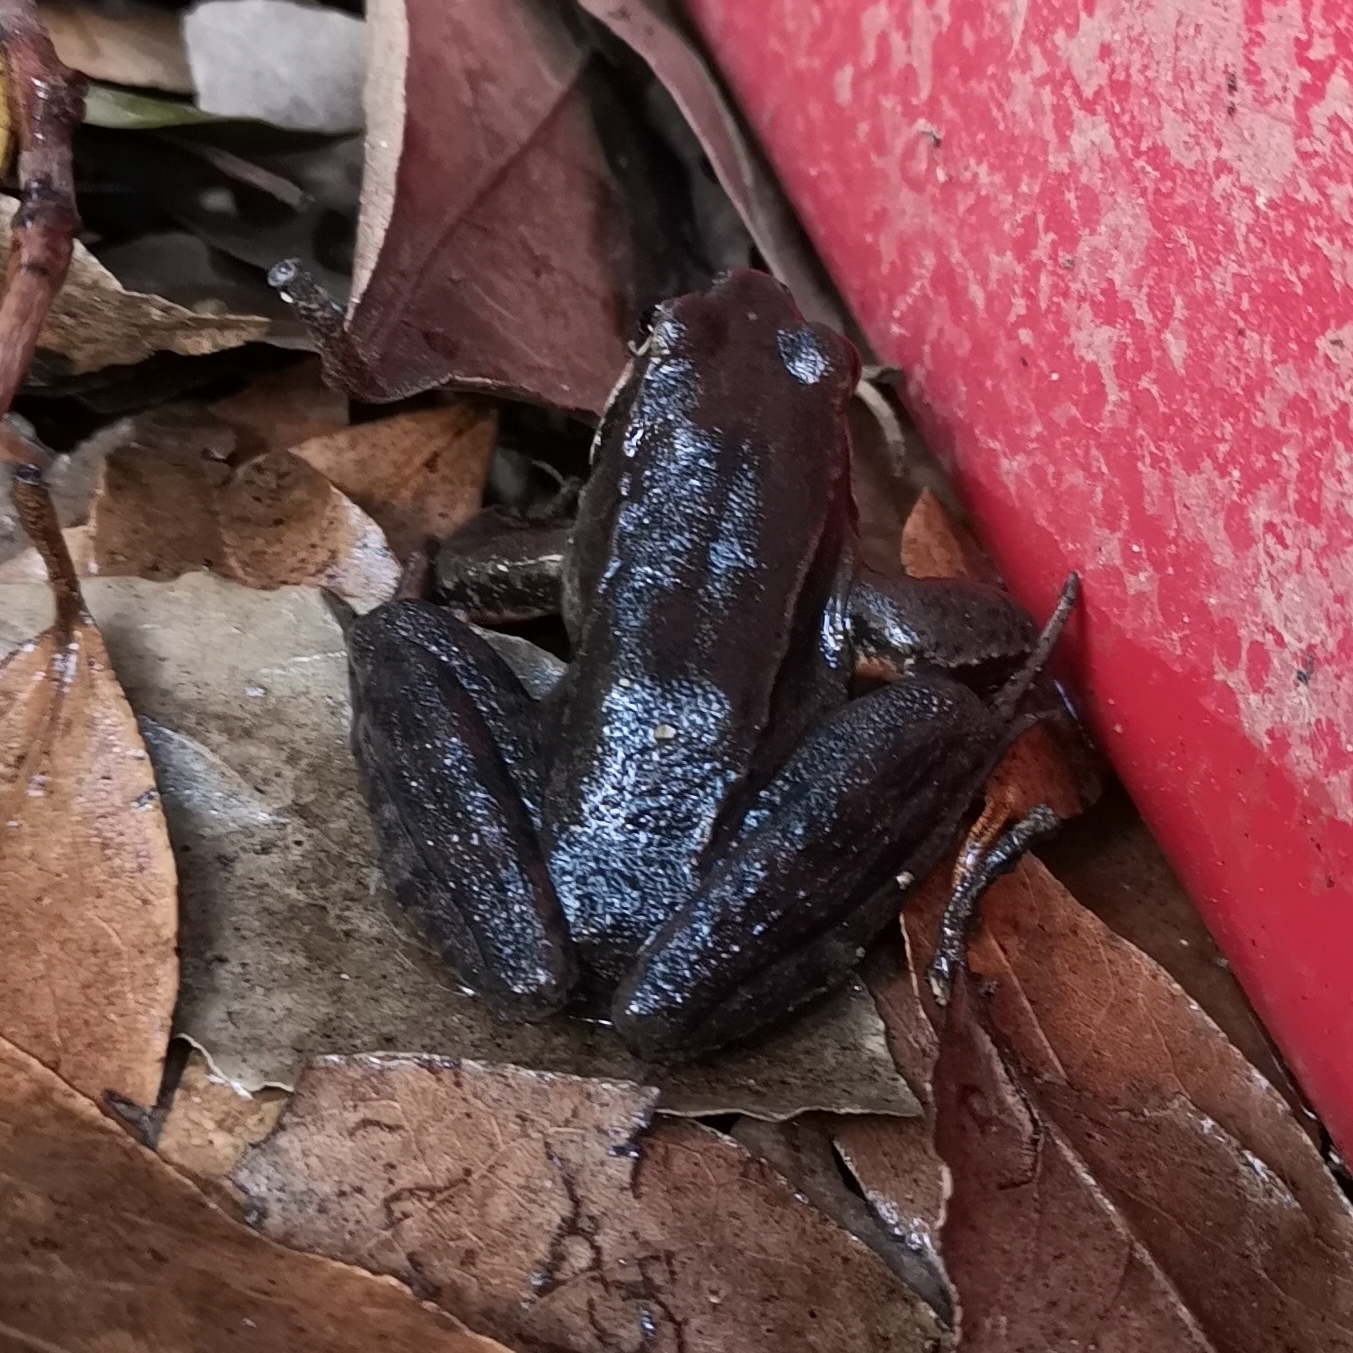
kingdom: Animalia
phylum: Chordata
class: Amphibia
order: Anura
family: Ranidae
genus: Rana
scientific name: Rana latastei
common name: Italian agile frog
